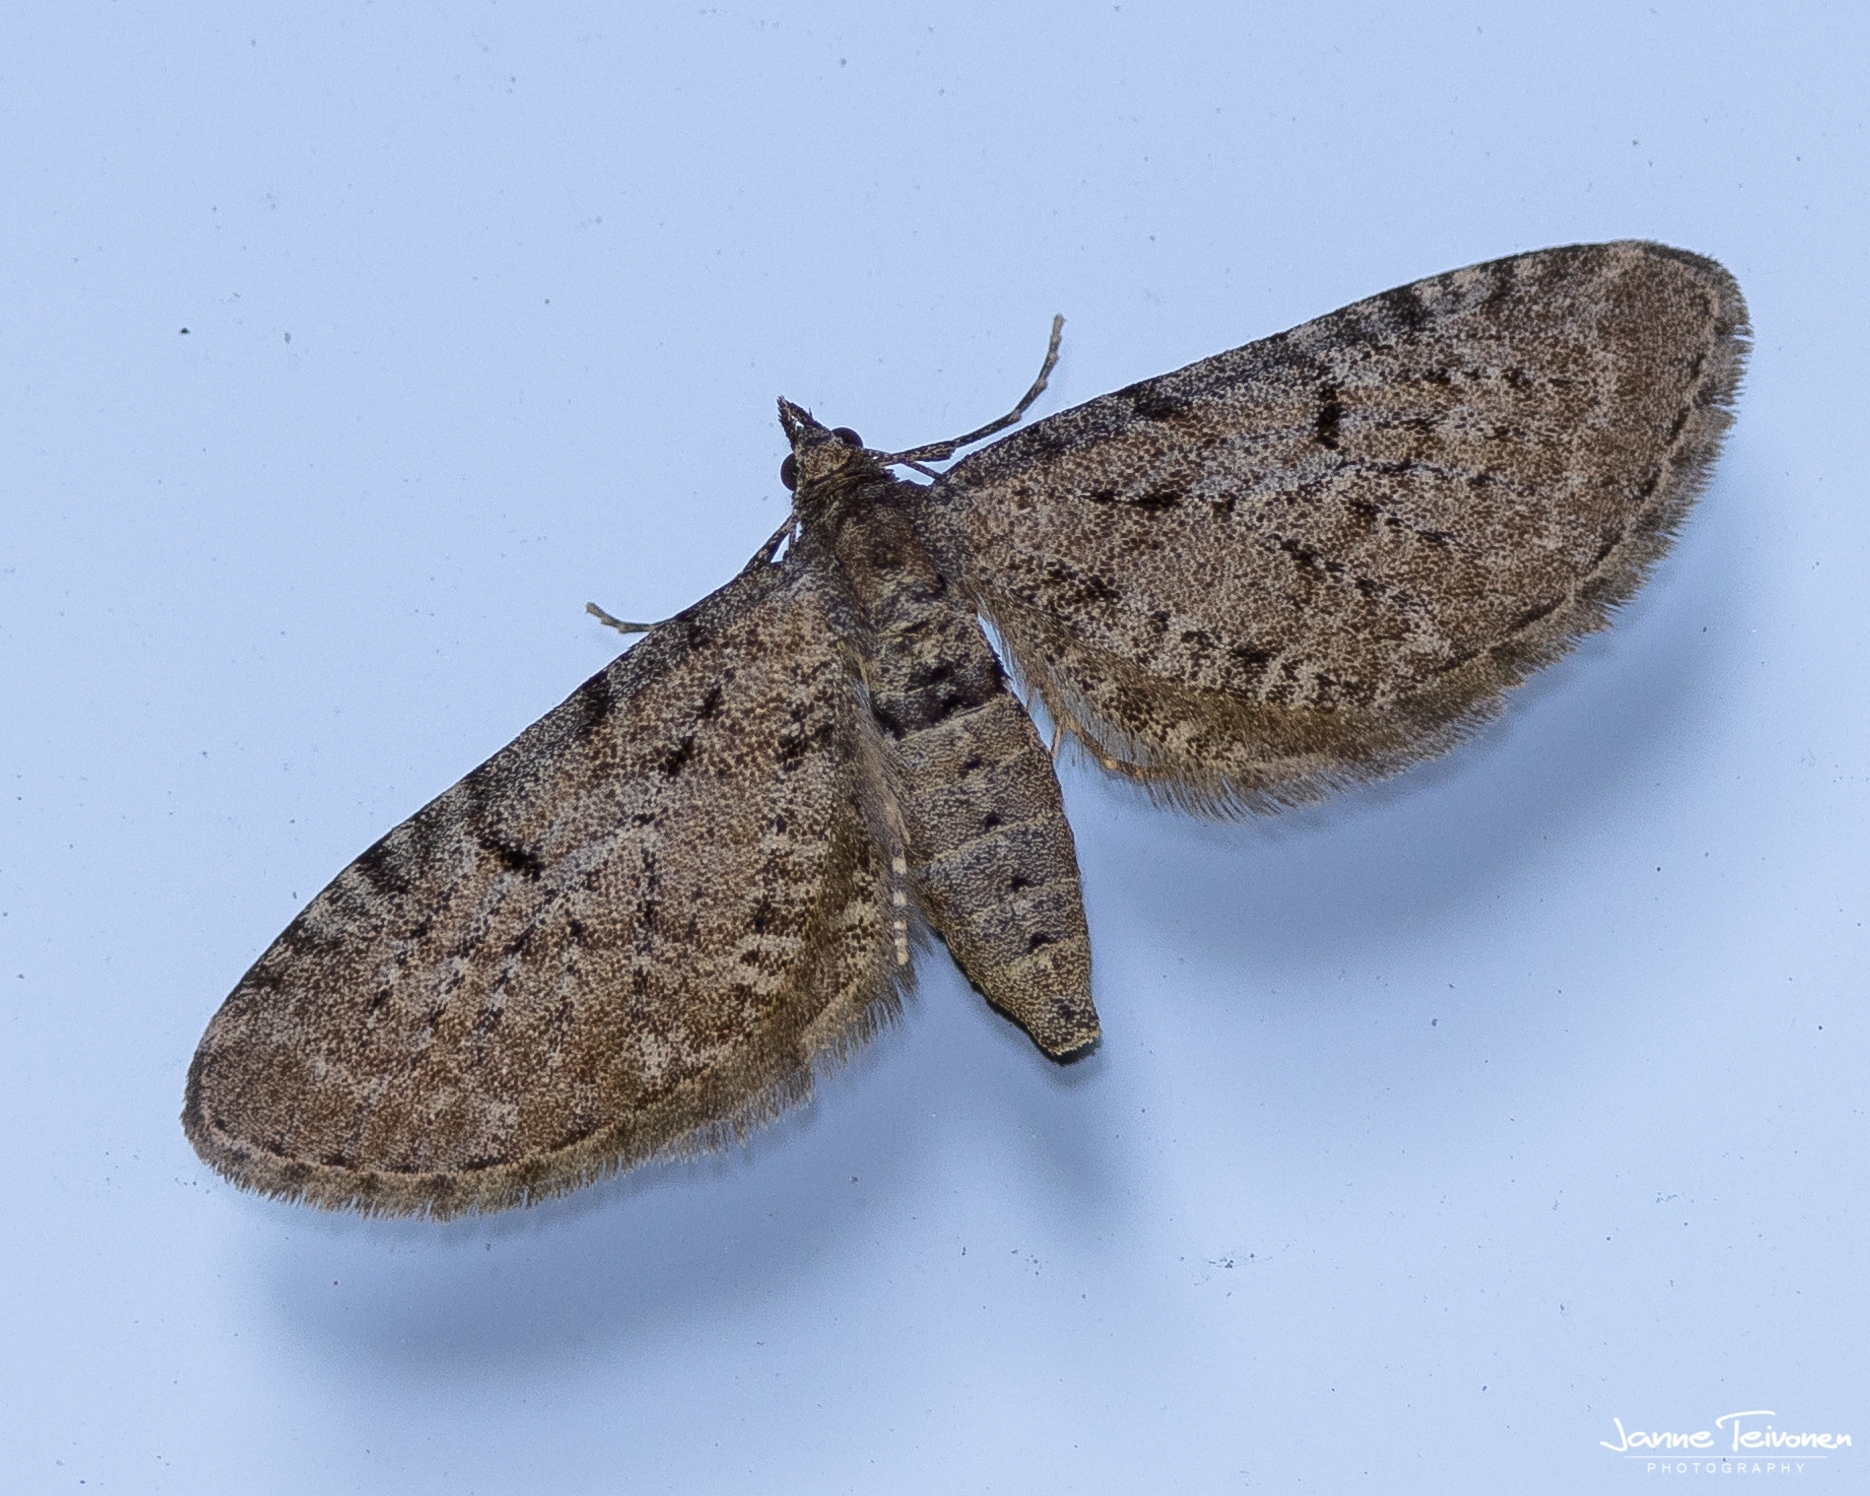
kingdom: Animalia
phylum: Arthropoda
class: Insecta
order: Lepidoptera
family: Geometridae
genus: Eupithecia
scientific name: Eupithecia intricata
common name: Freyers pug
